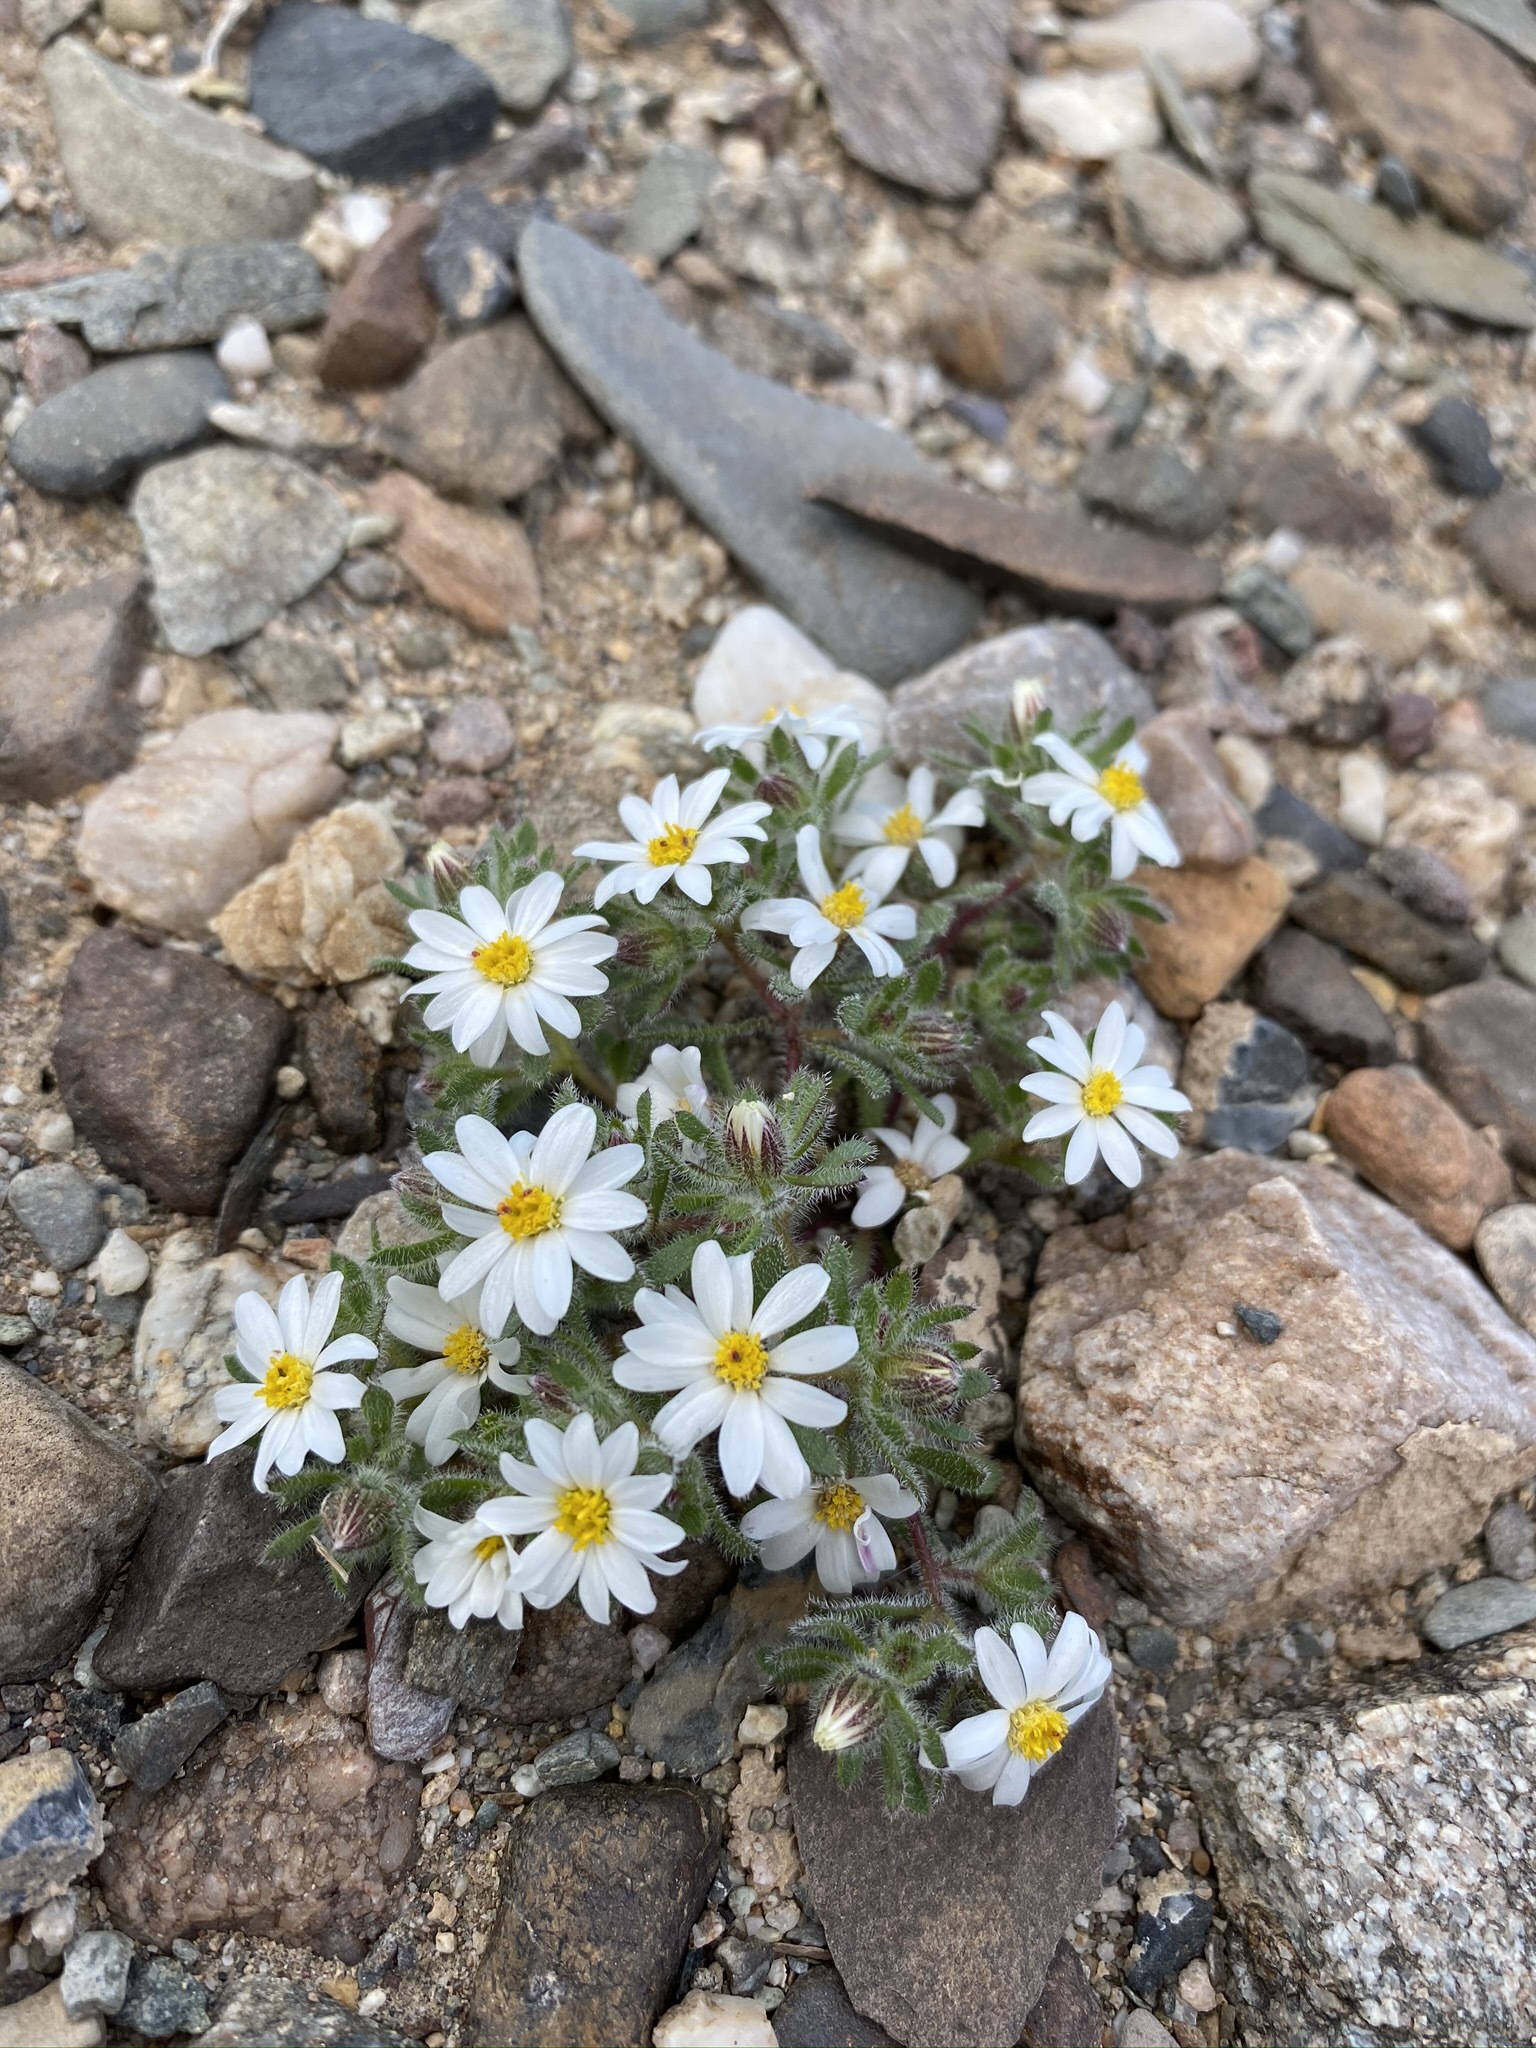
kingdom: Plantae
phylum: Tracheophyta
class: Magnoliopsida
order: Asterales
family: Asteraceae
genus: Monoptilon
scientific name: Monoptilon bellioides
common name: Bristly desertstar
